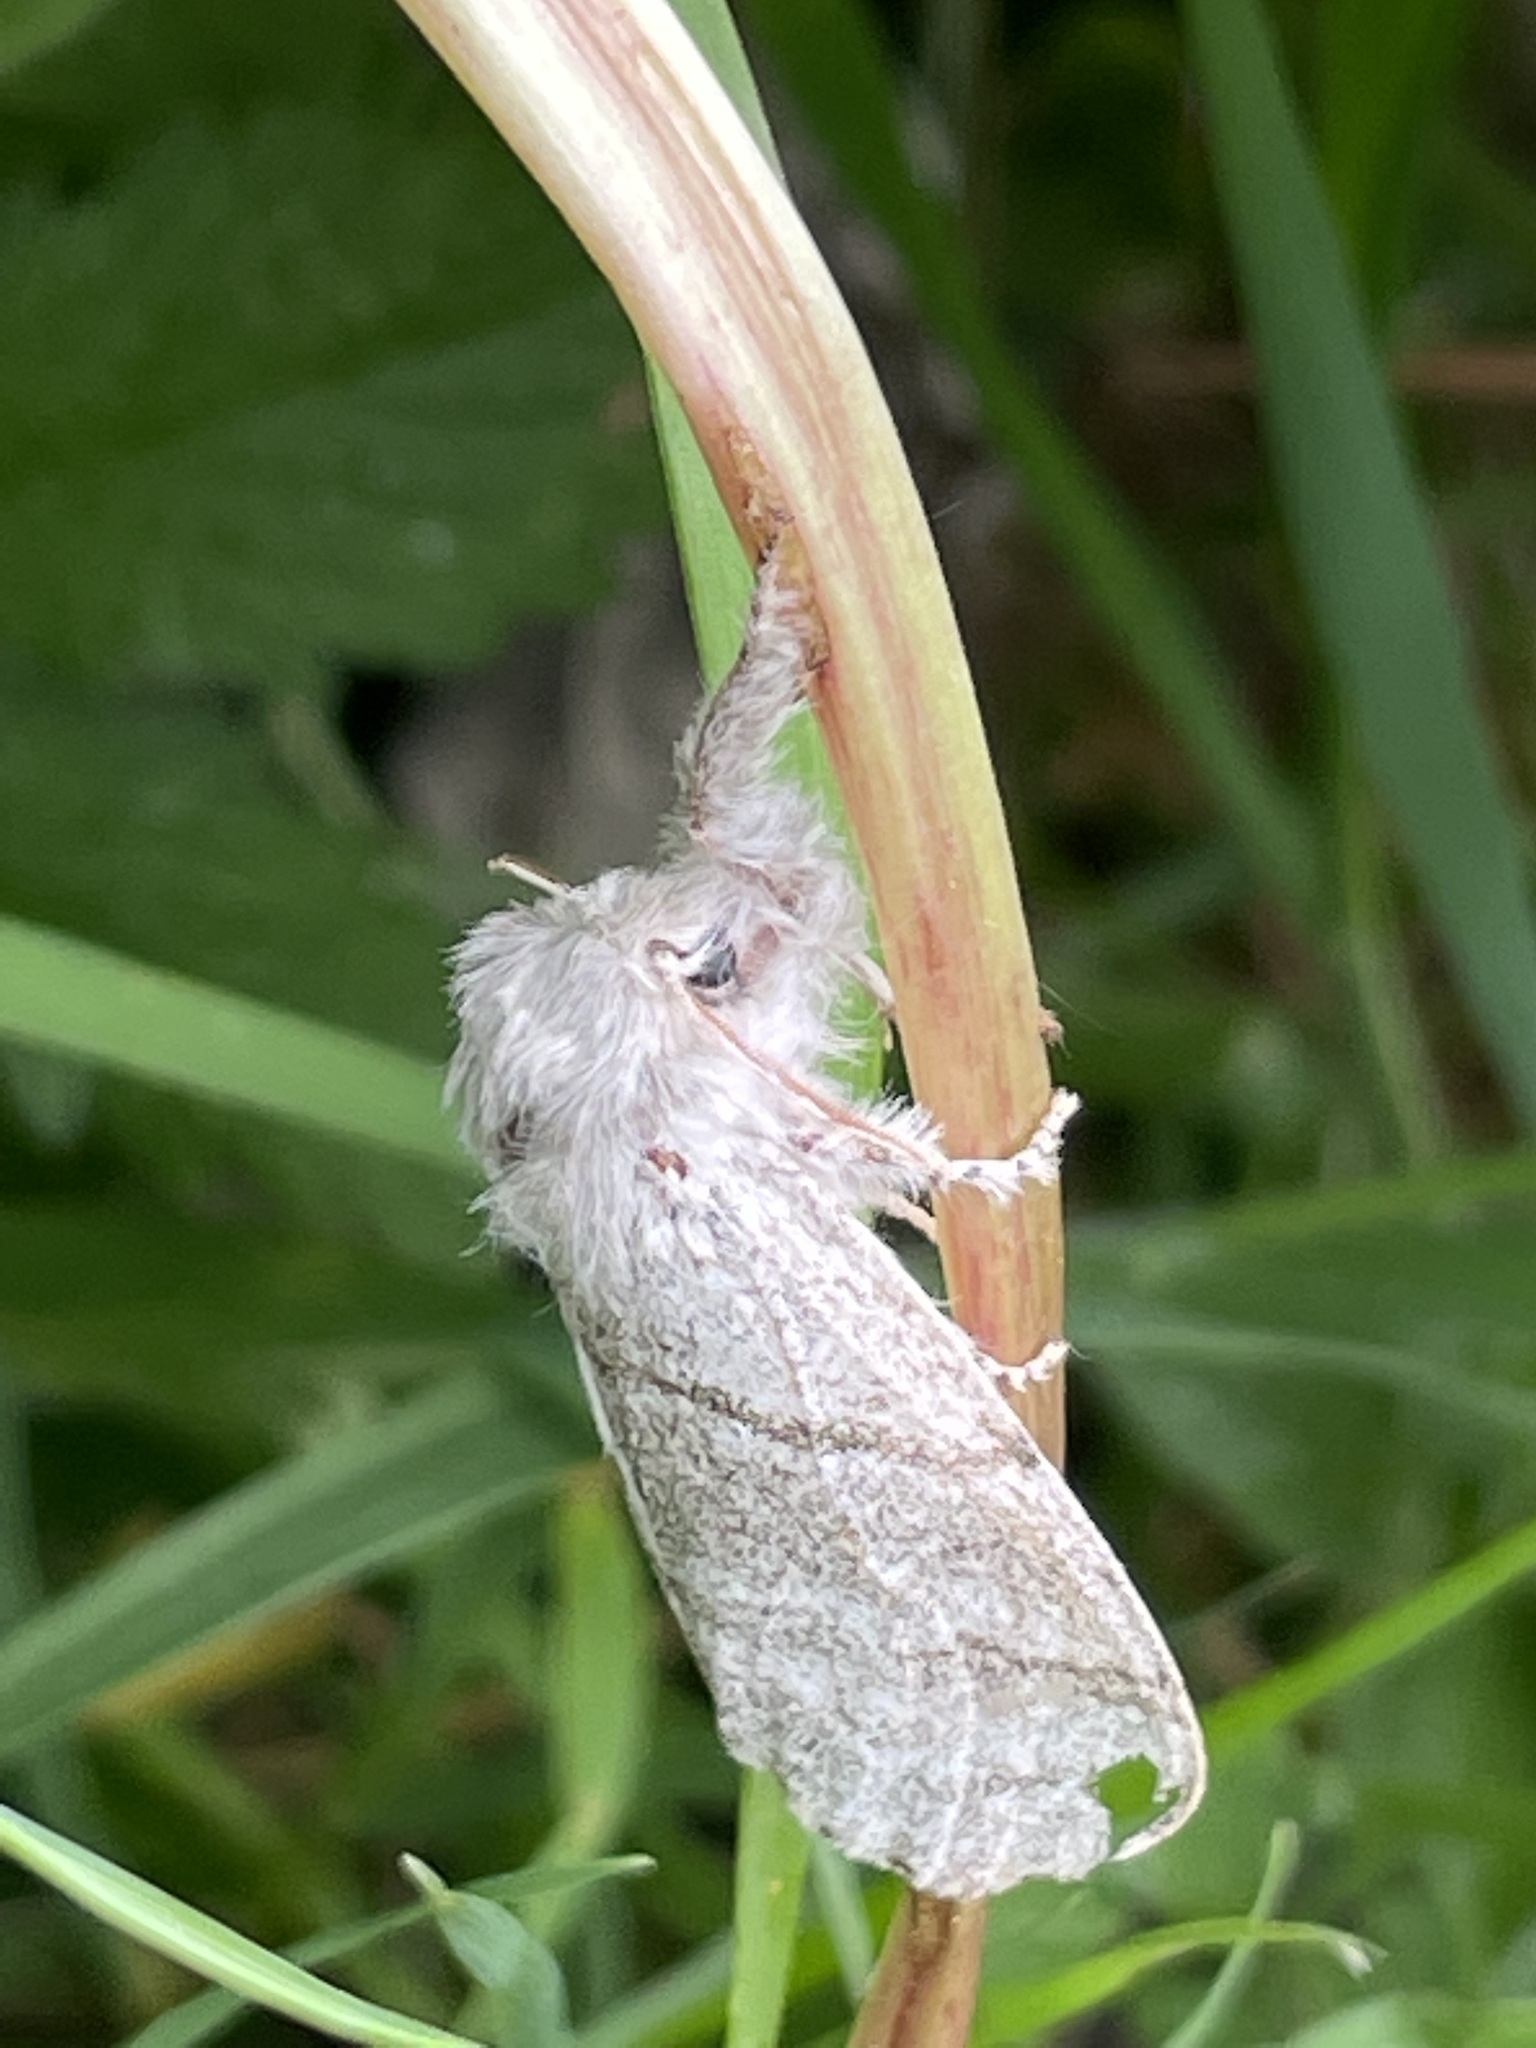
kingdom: Animalia
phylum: Arthropoda
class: Insecta
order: Lepidoptera
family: Erebidae
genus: Calliteara
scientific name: Calliteara pudibunda
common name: Pale tussock
